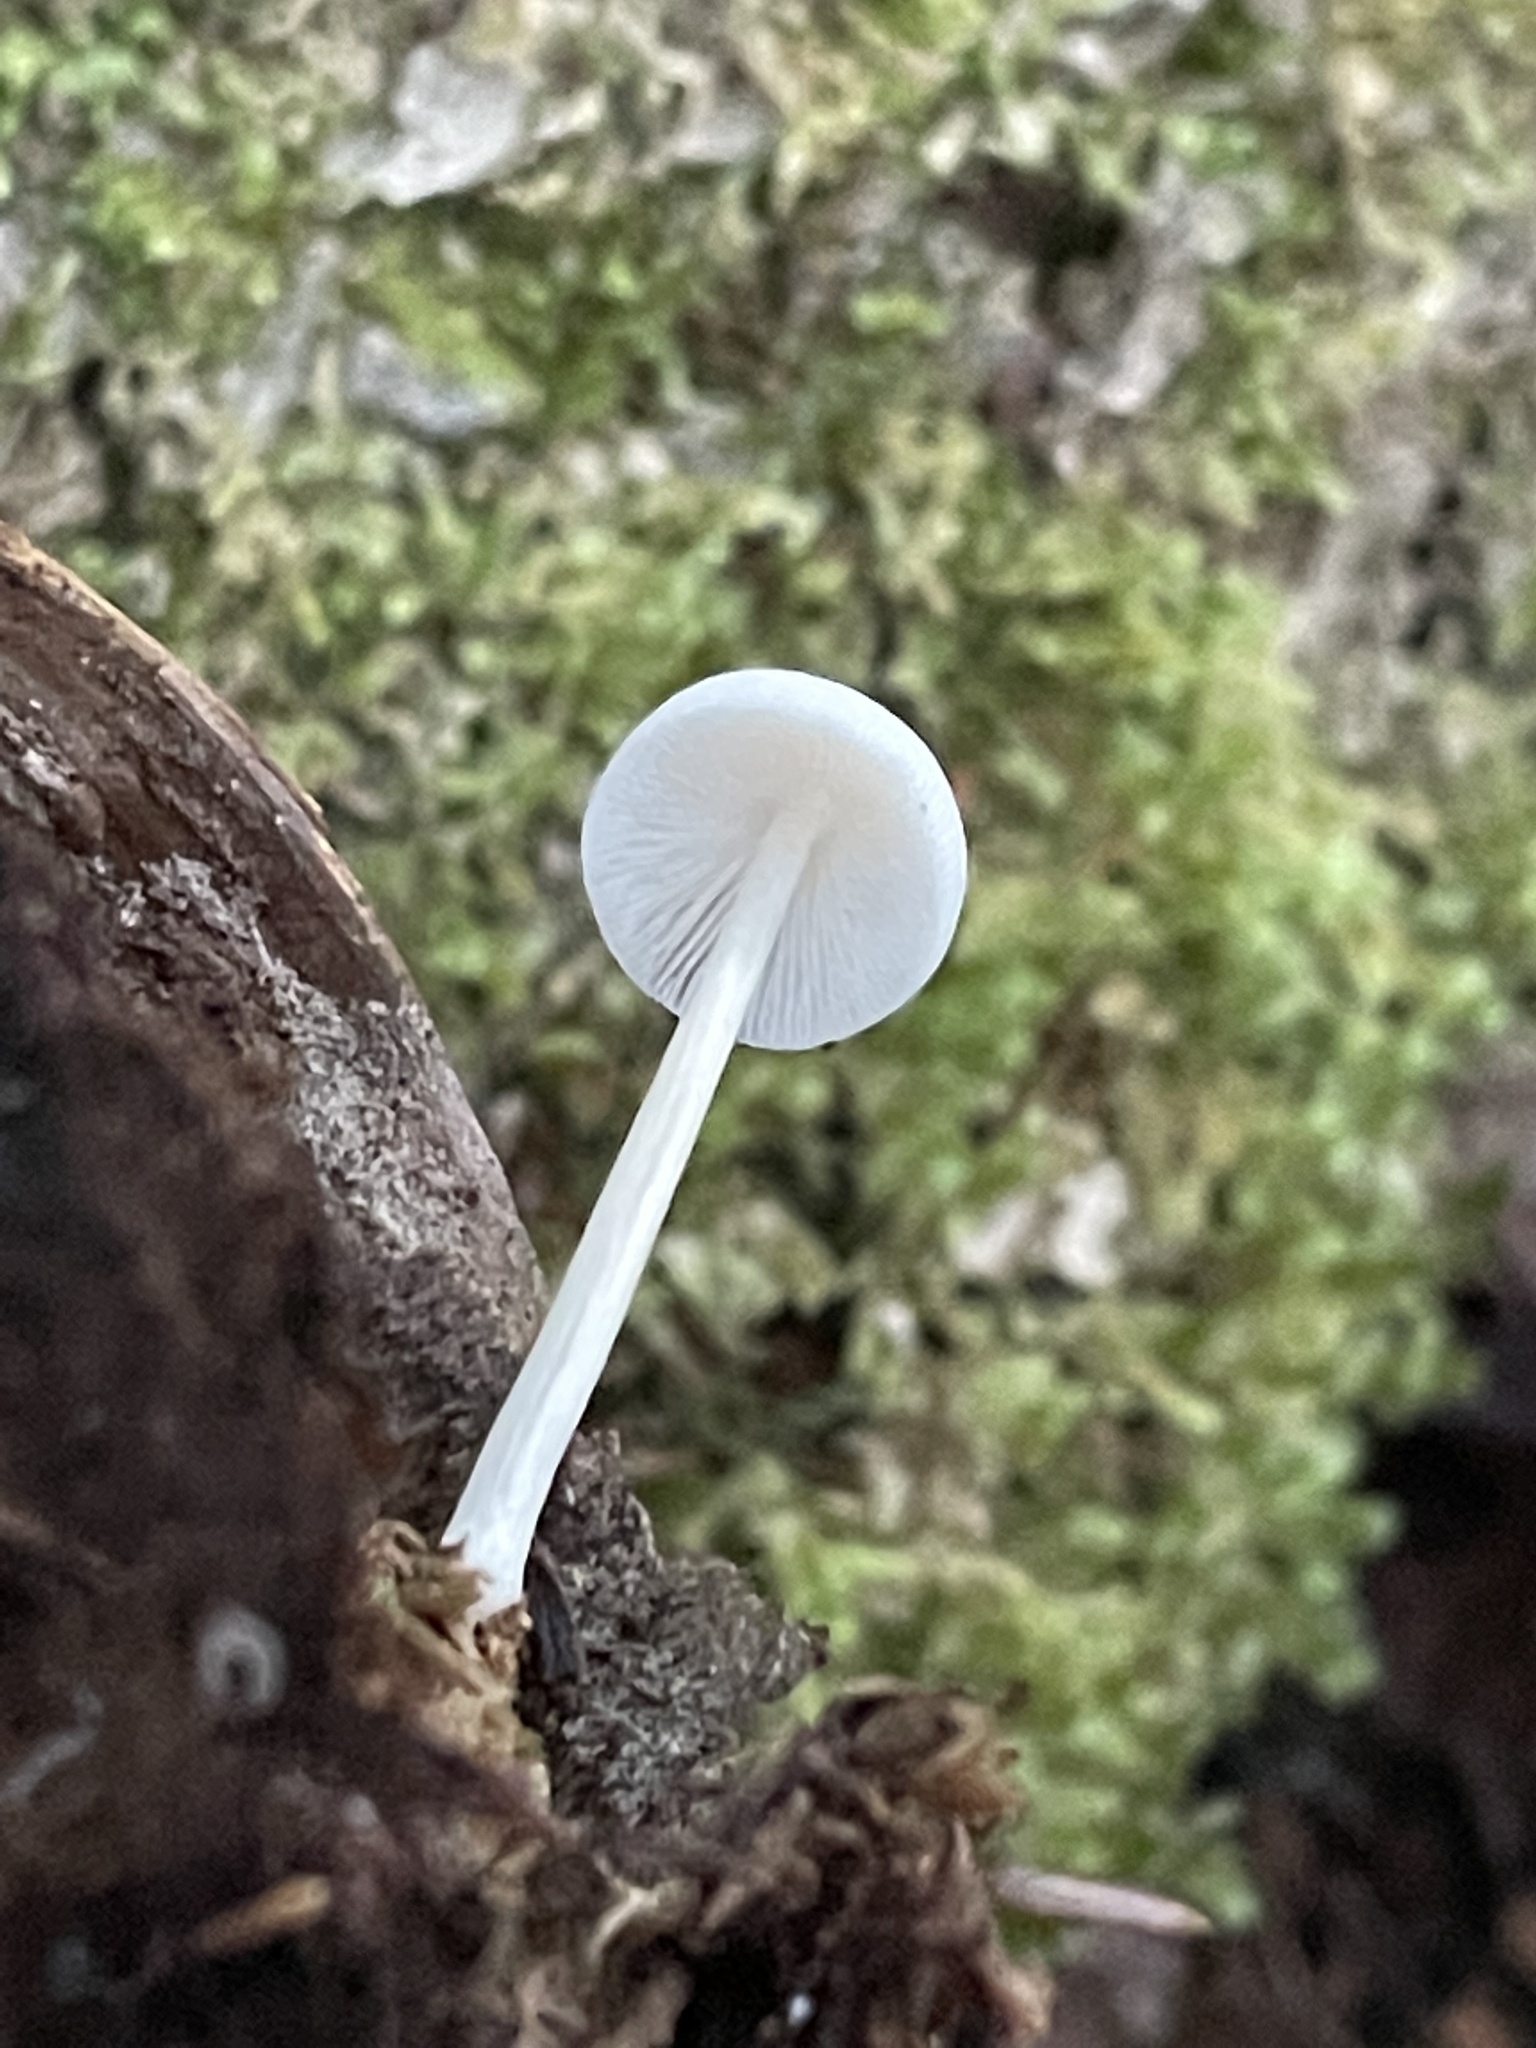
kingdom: Fungi
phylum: Basidiomycota
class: Agaricomycetes
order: Agaricales
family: Mycenaceae
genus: Mycena
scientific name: Mycena galericulata
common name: Bonnet mycena
